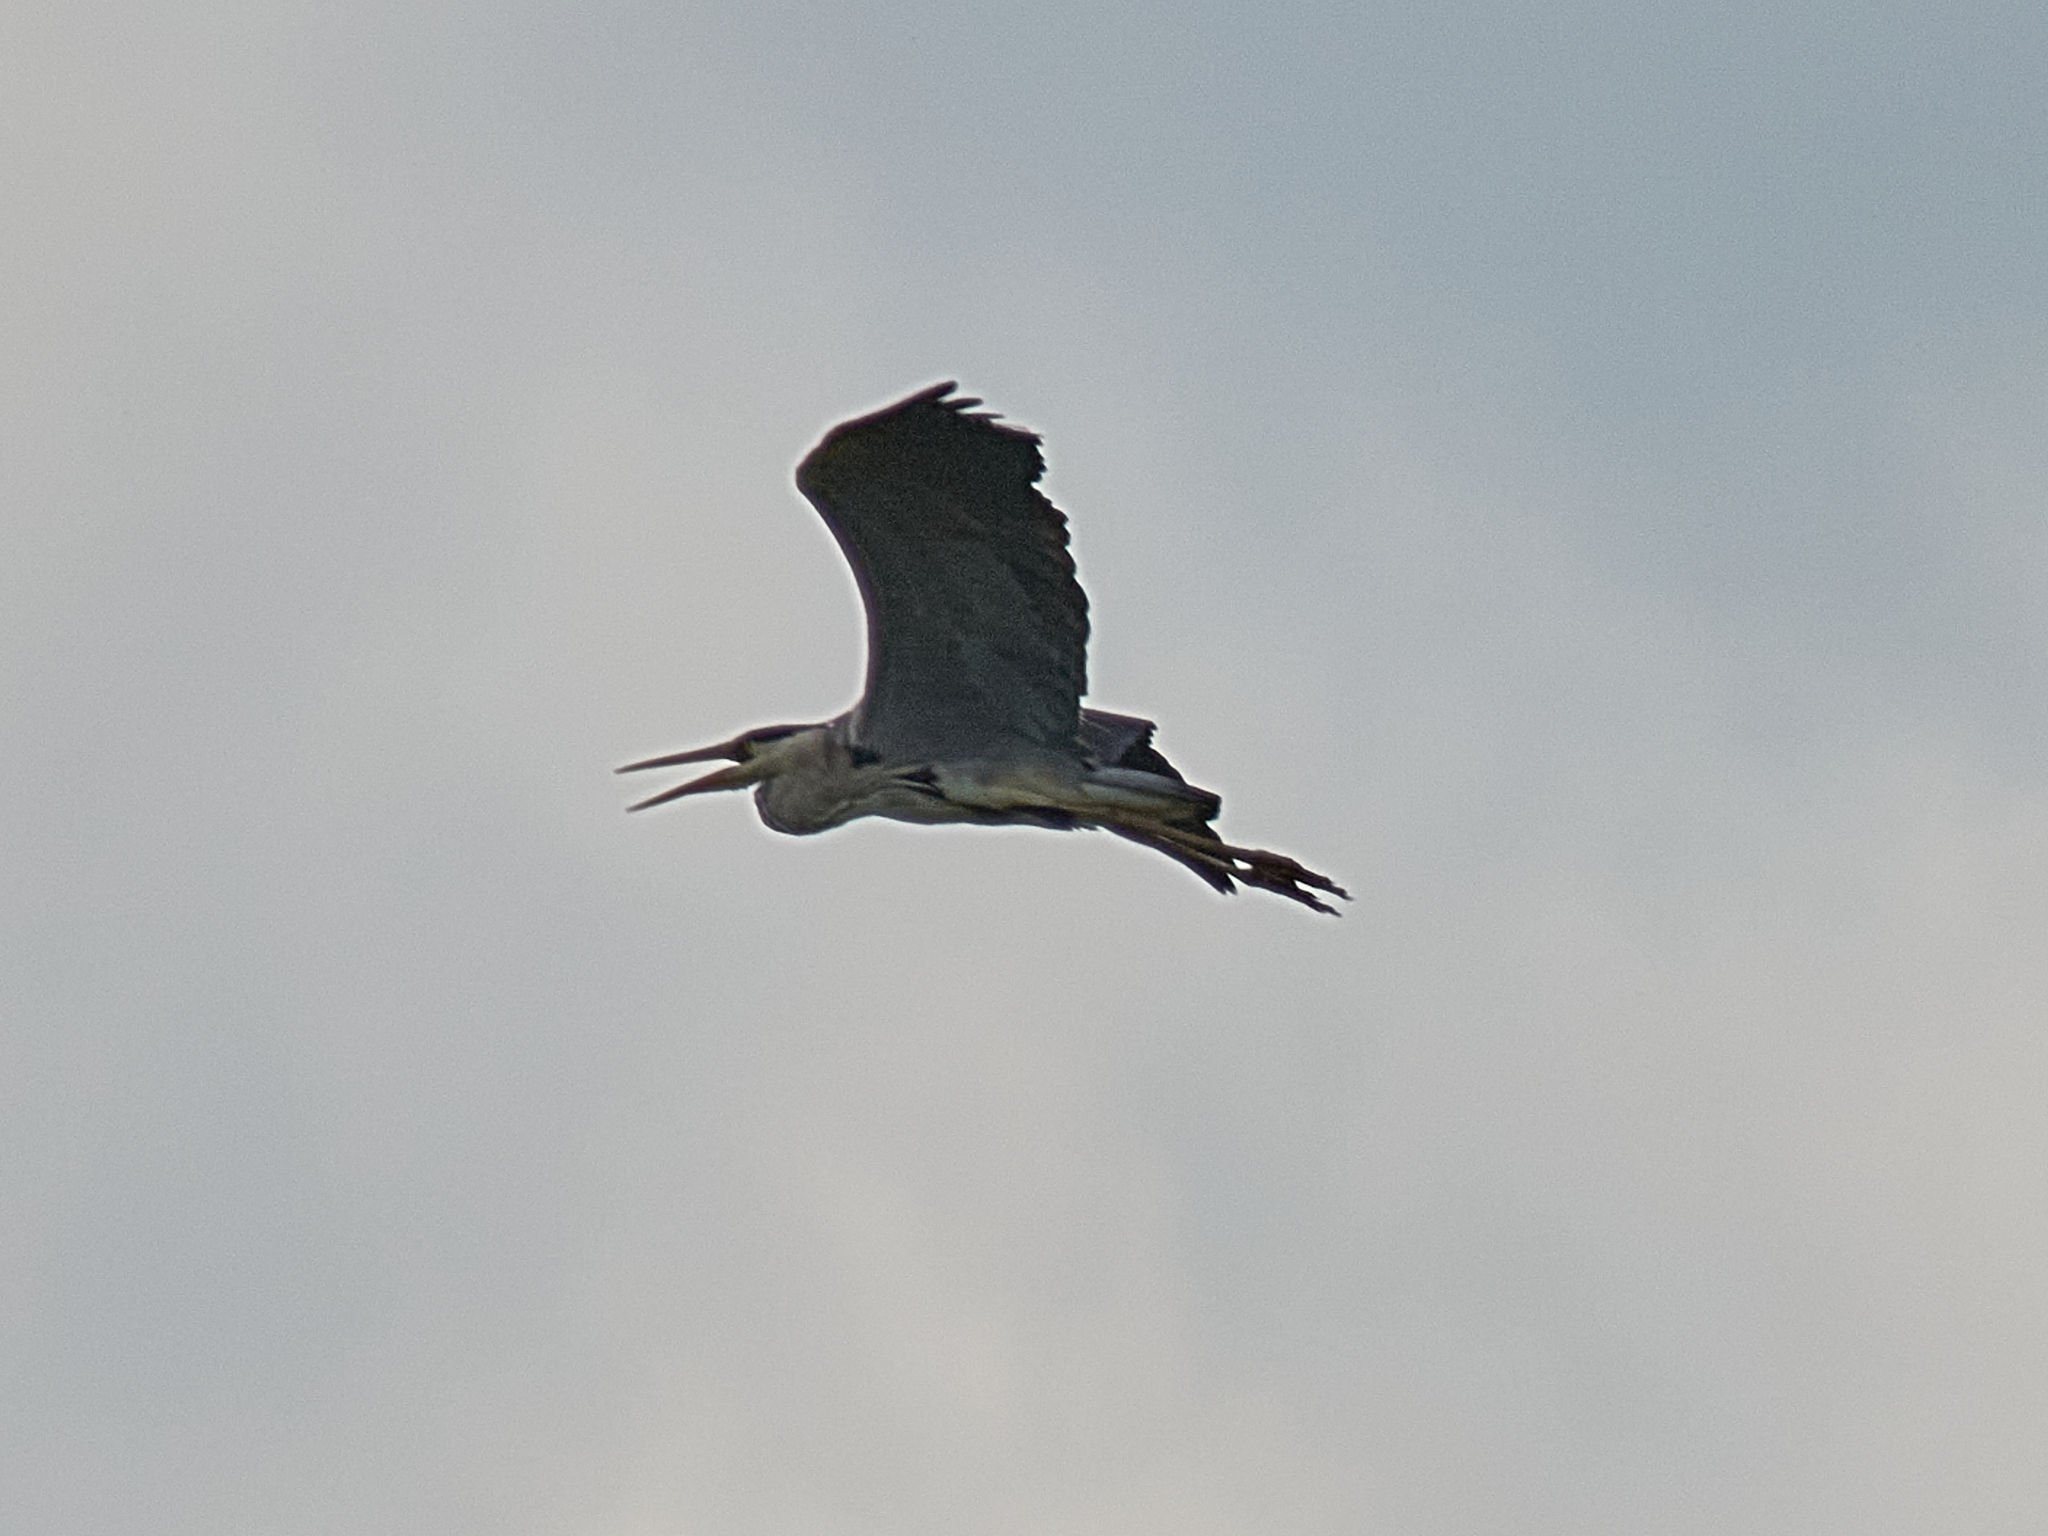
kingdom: Animalia
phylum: Chordata
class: Aves
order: Pelecaniformes
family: Ardeidae
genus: Ardea
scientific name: Ardea cinerea
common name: Grey heron
